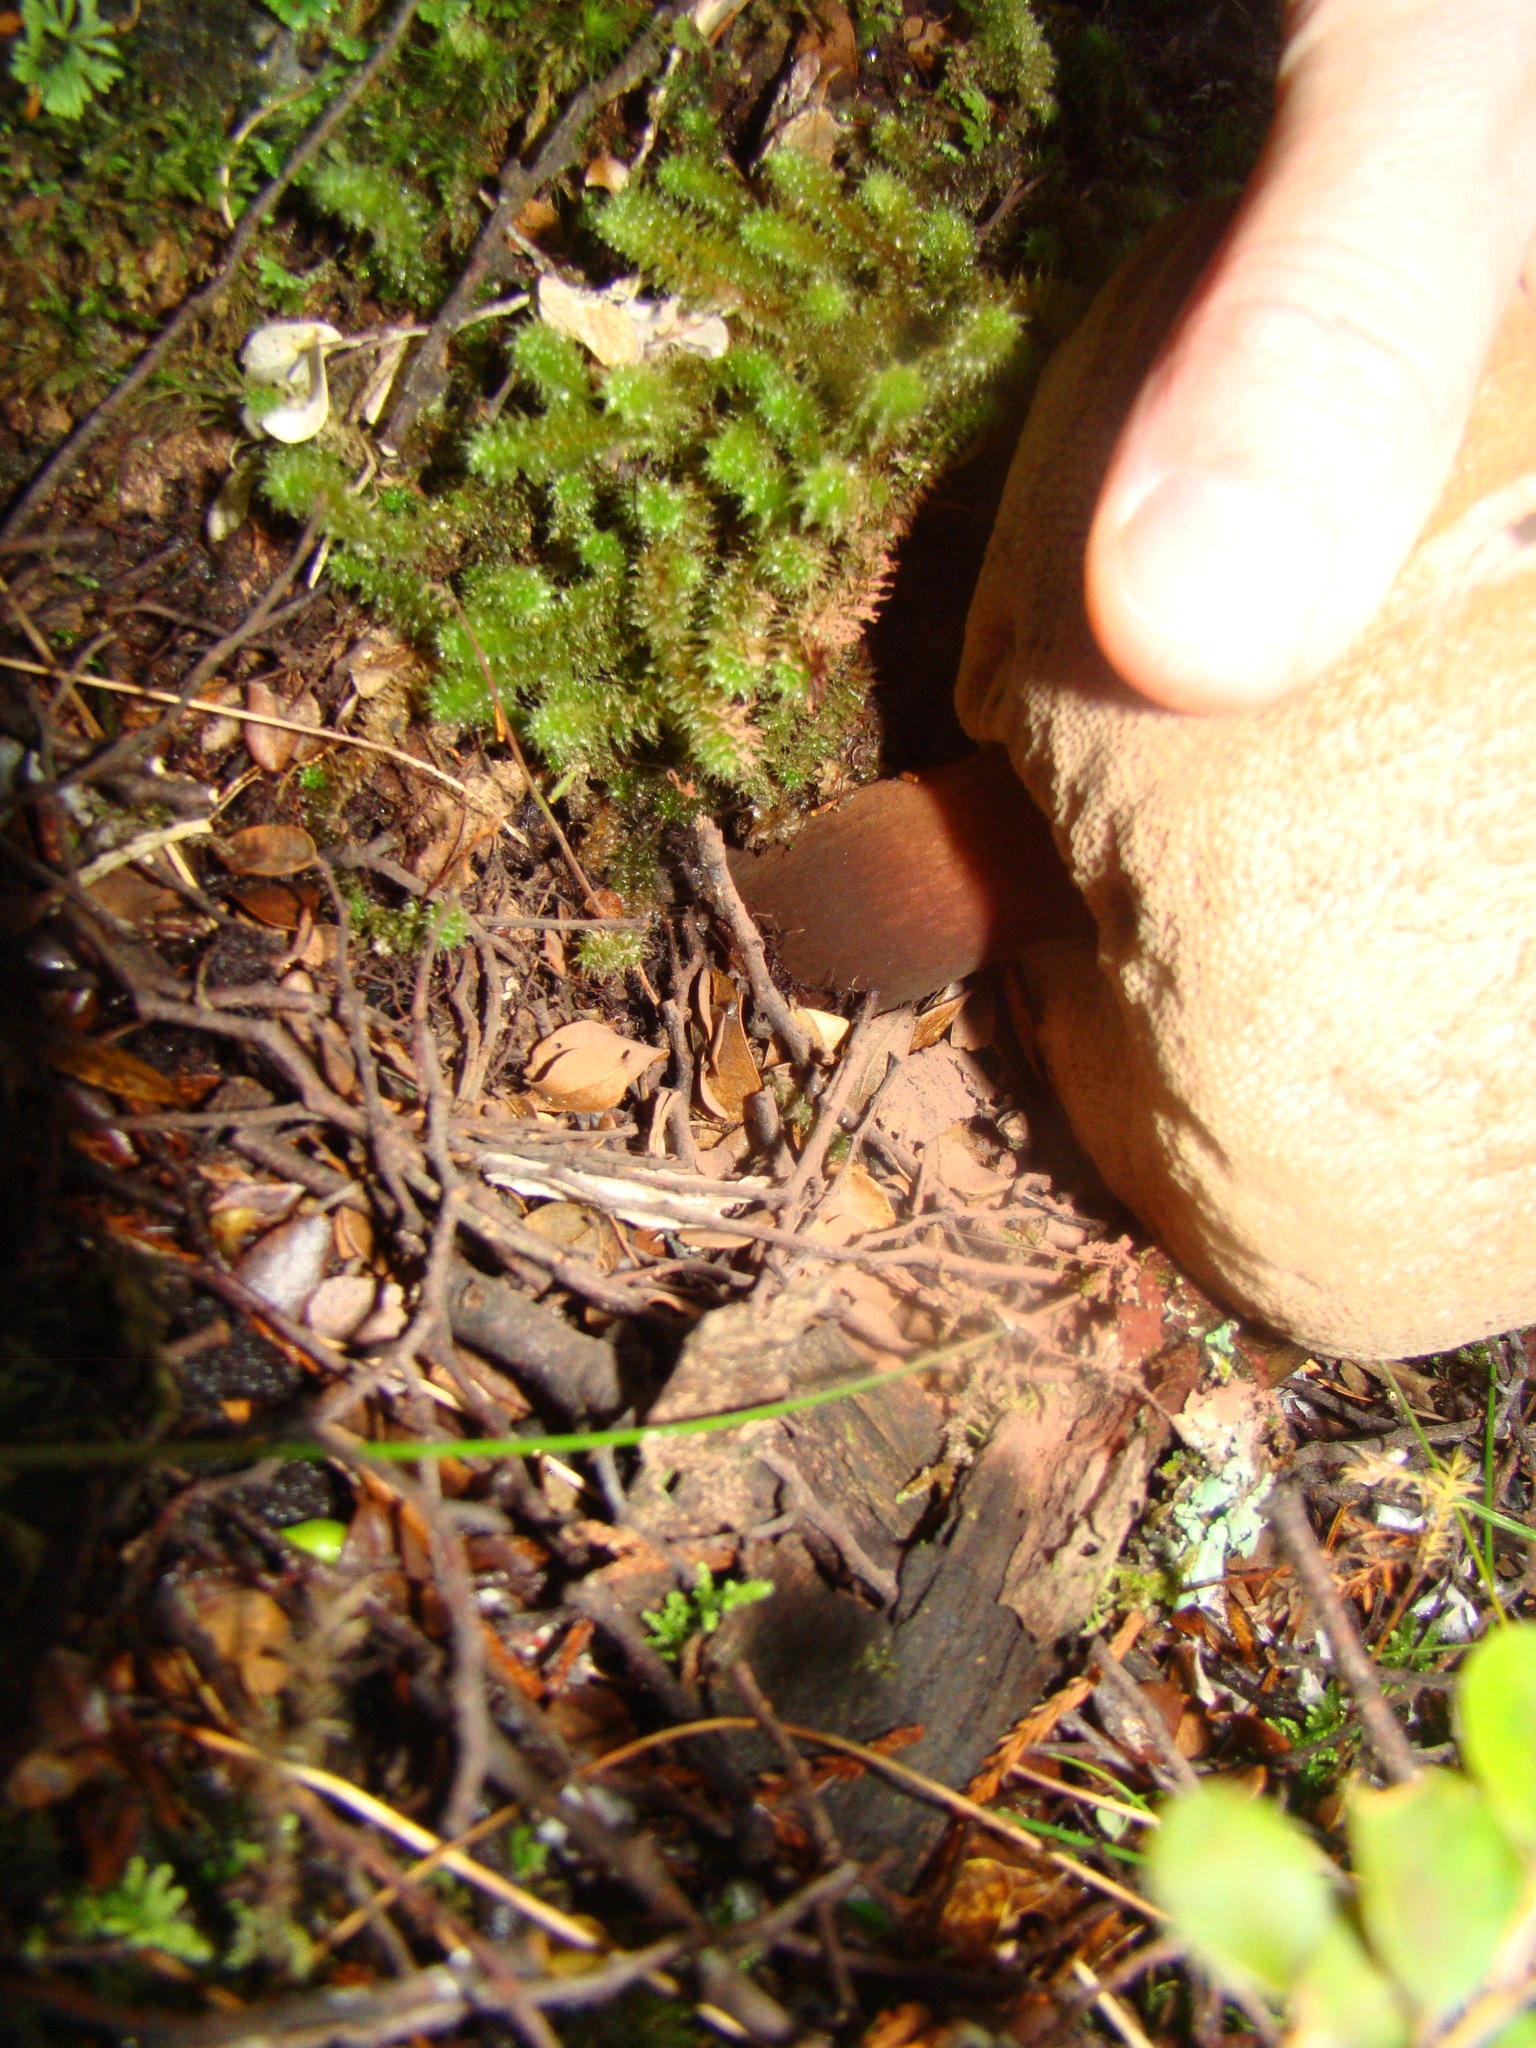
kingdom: Fungi
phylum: Basidiomycota
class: Agaricomycetes
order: Boletales
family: Boletaceae
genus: Porphyrellus
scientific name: Porphyrellus formosus
